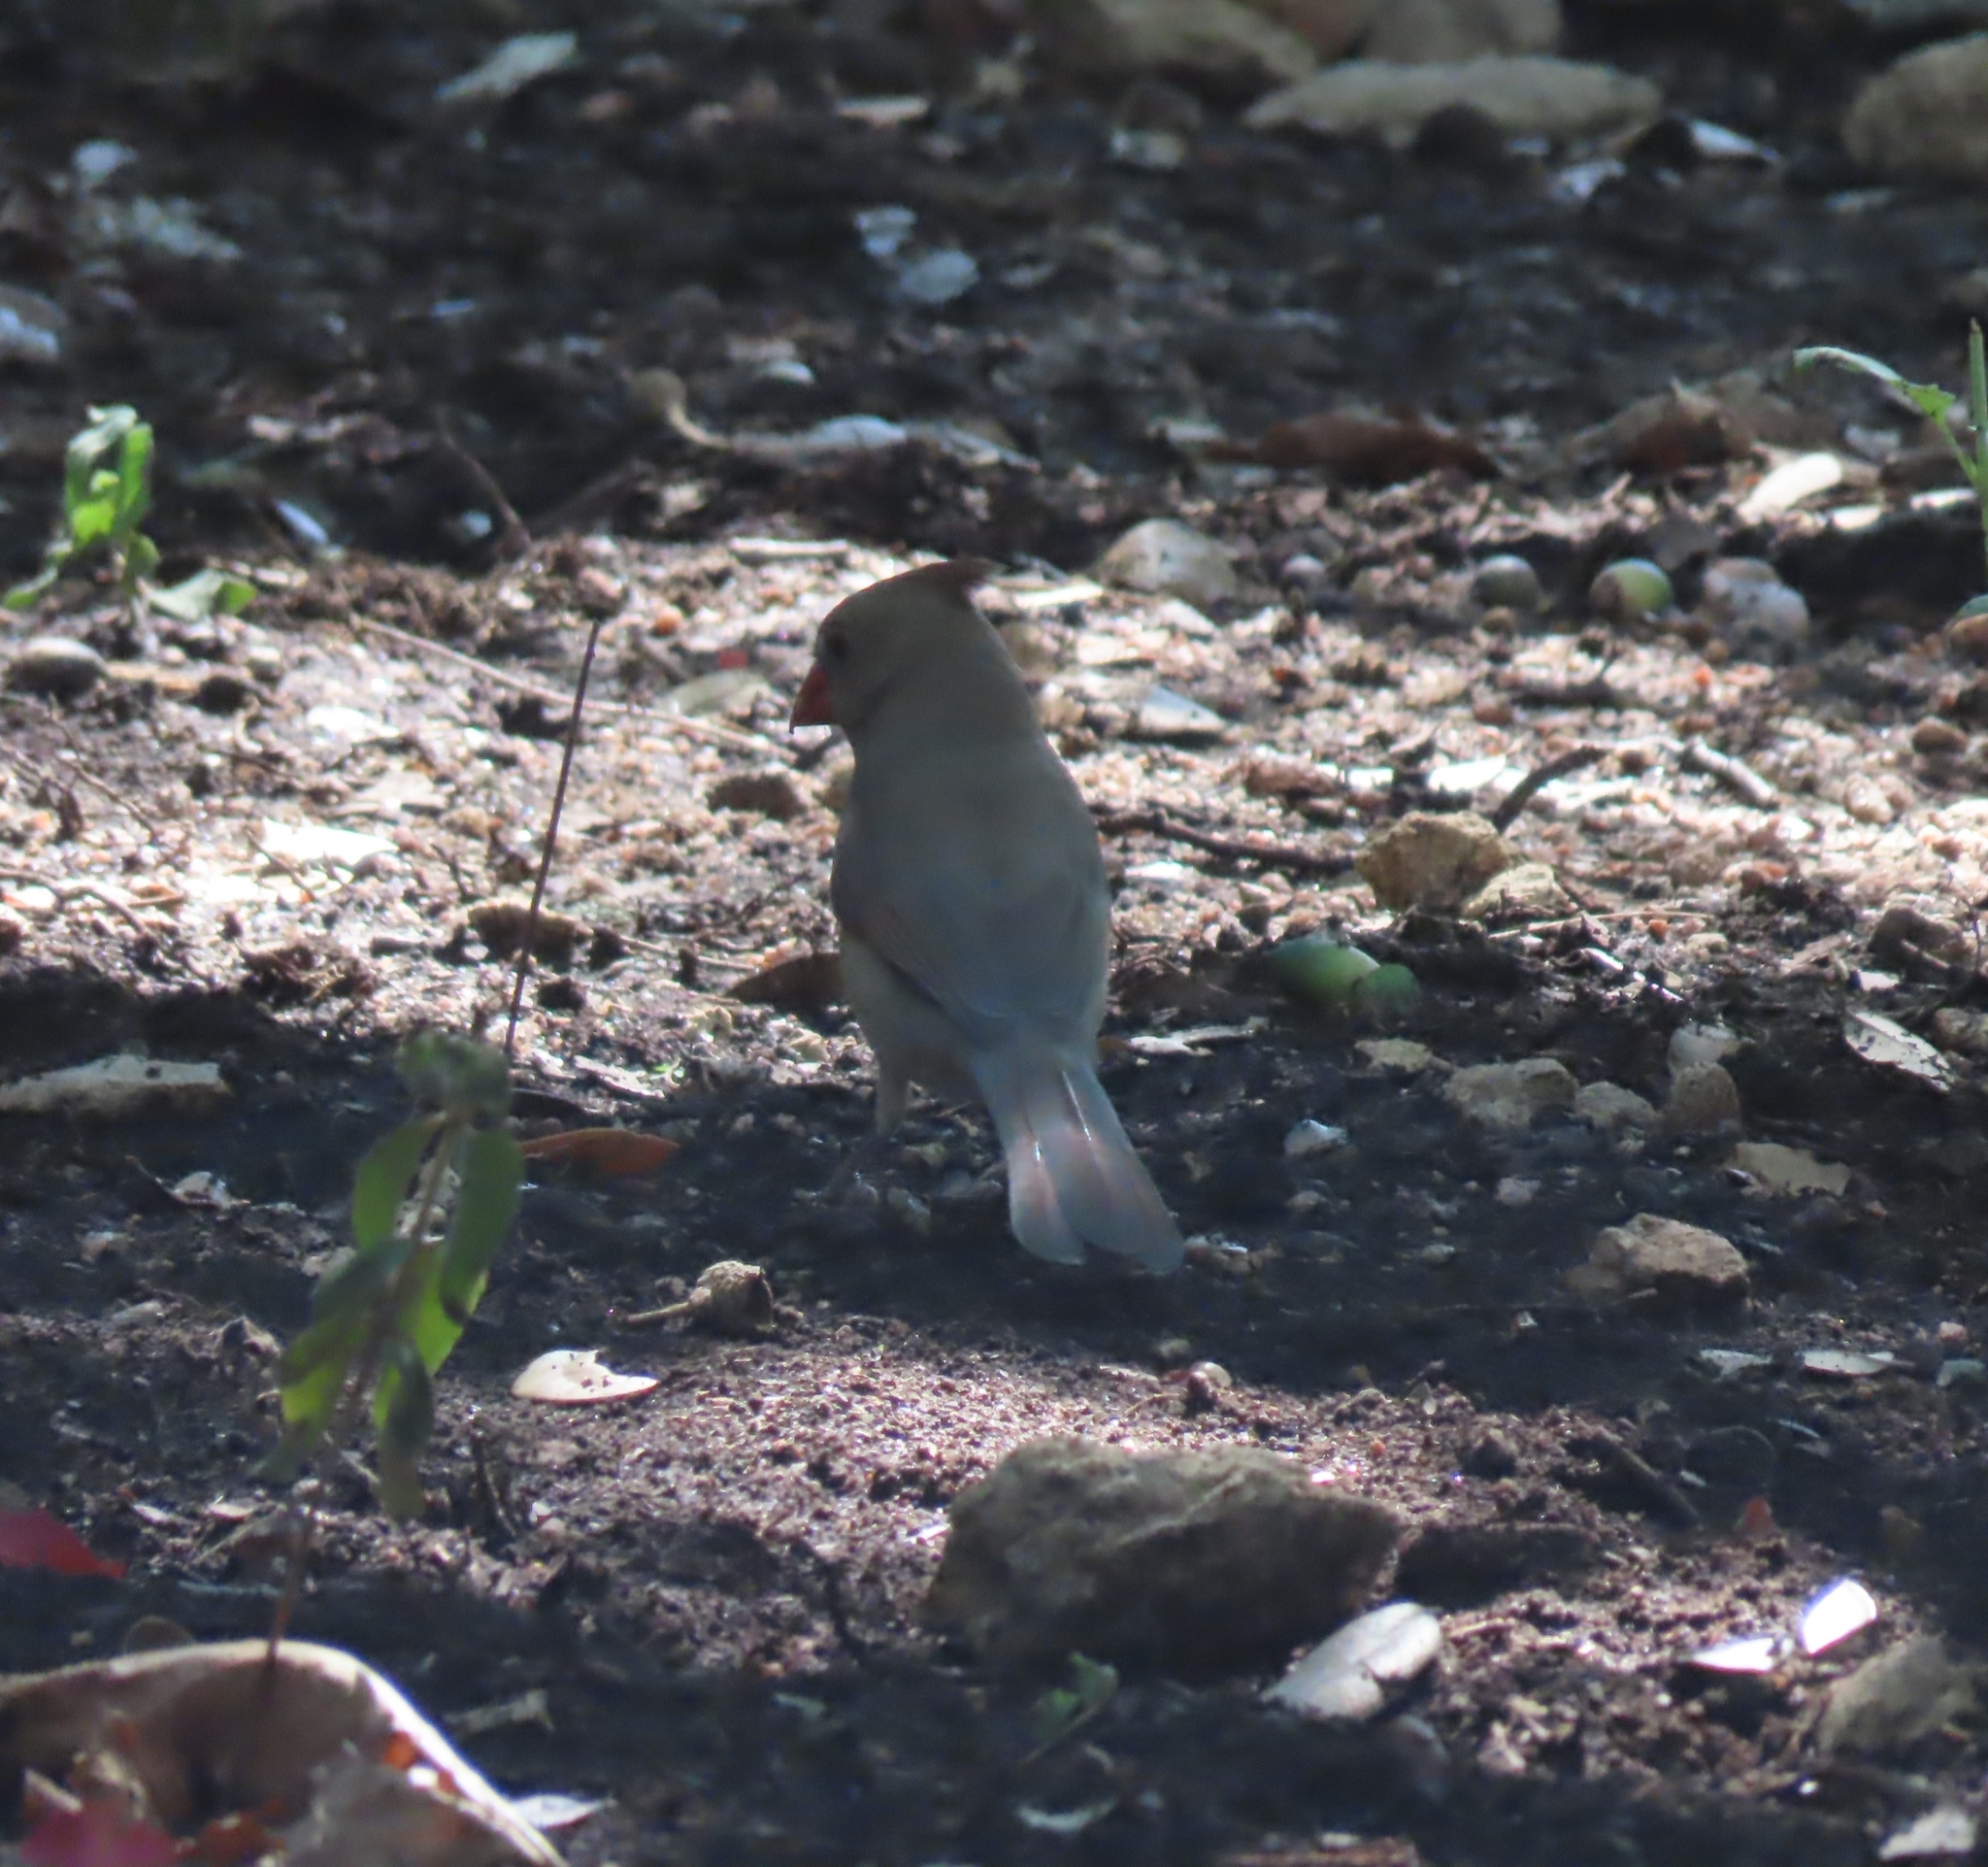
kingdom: Animalia
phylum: Chordata
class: Aves
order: Passeriformes
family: Cardinalidae
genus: Cardinalis
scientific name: Cardinalis cardinalis
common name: Northern cardinal
